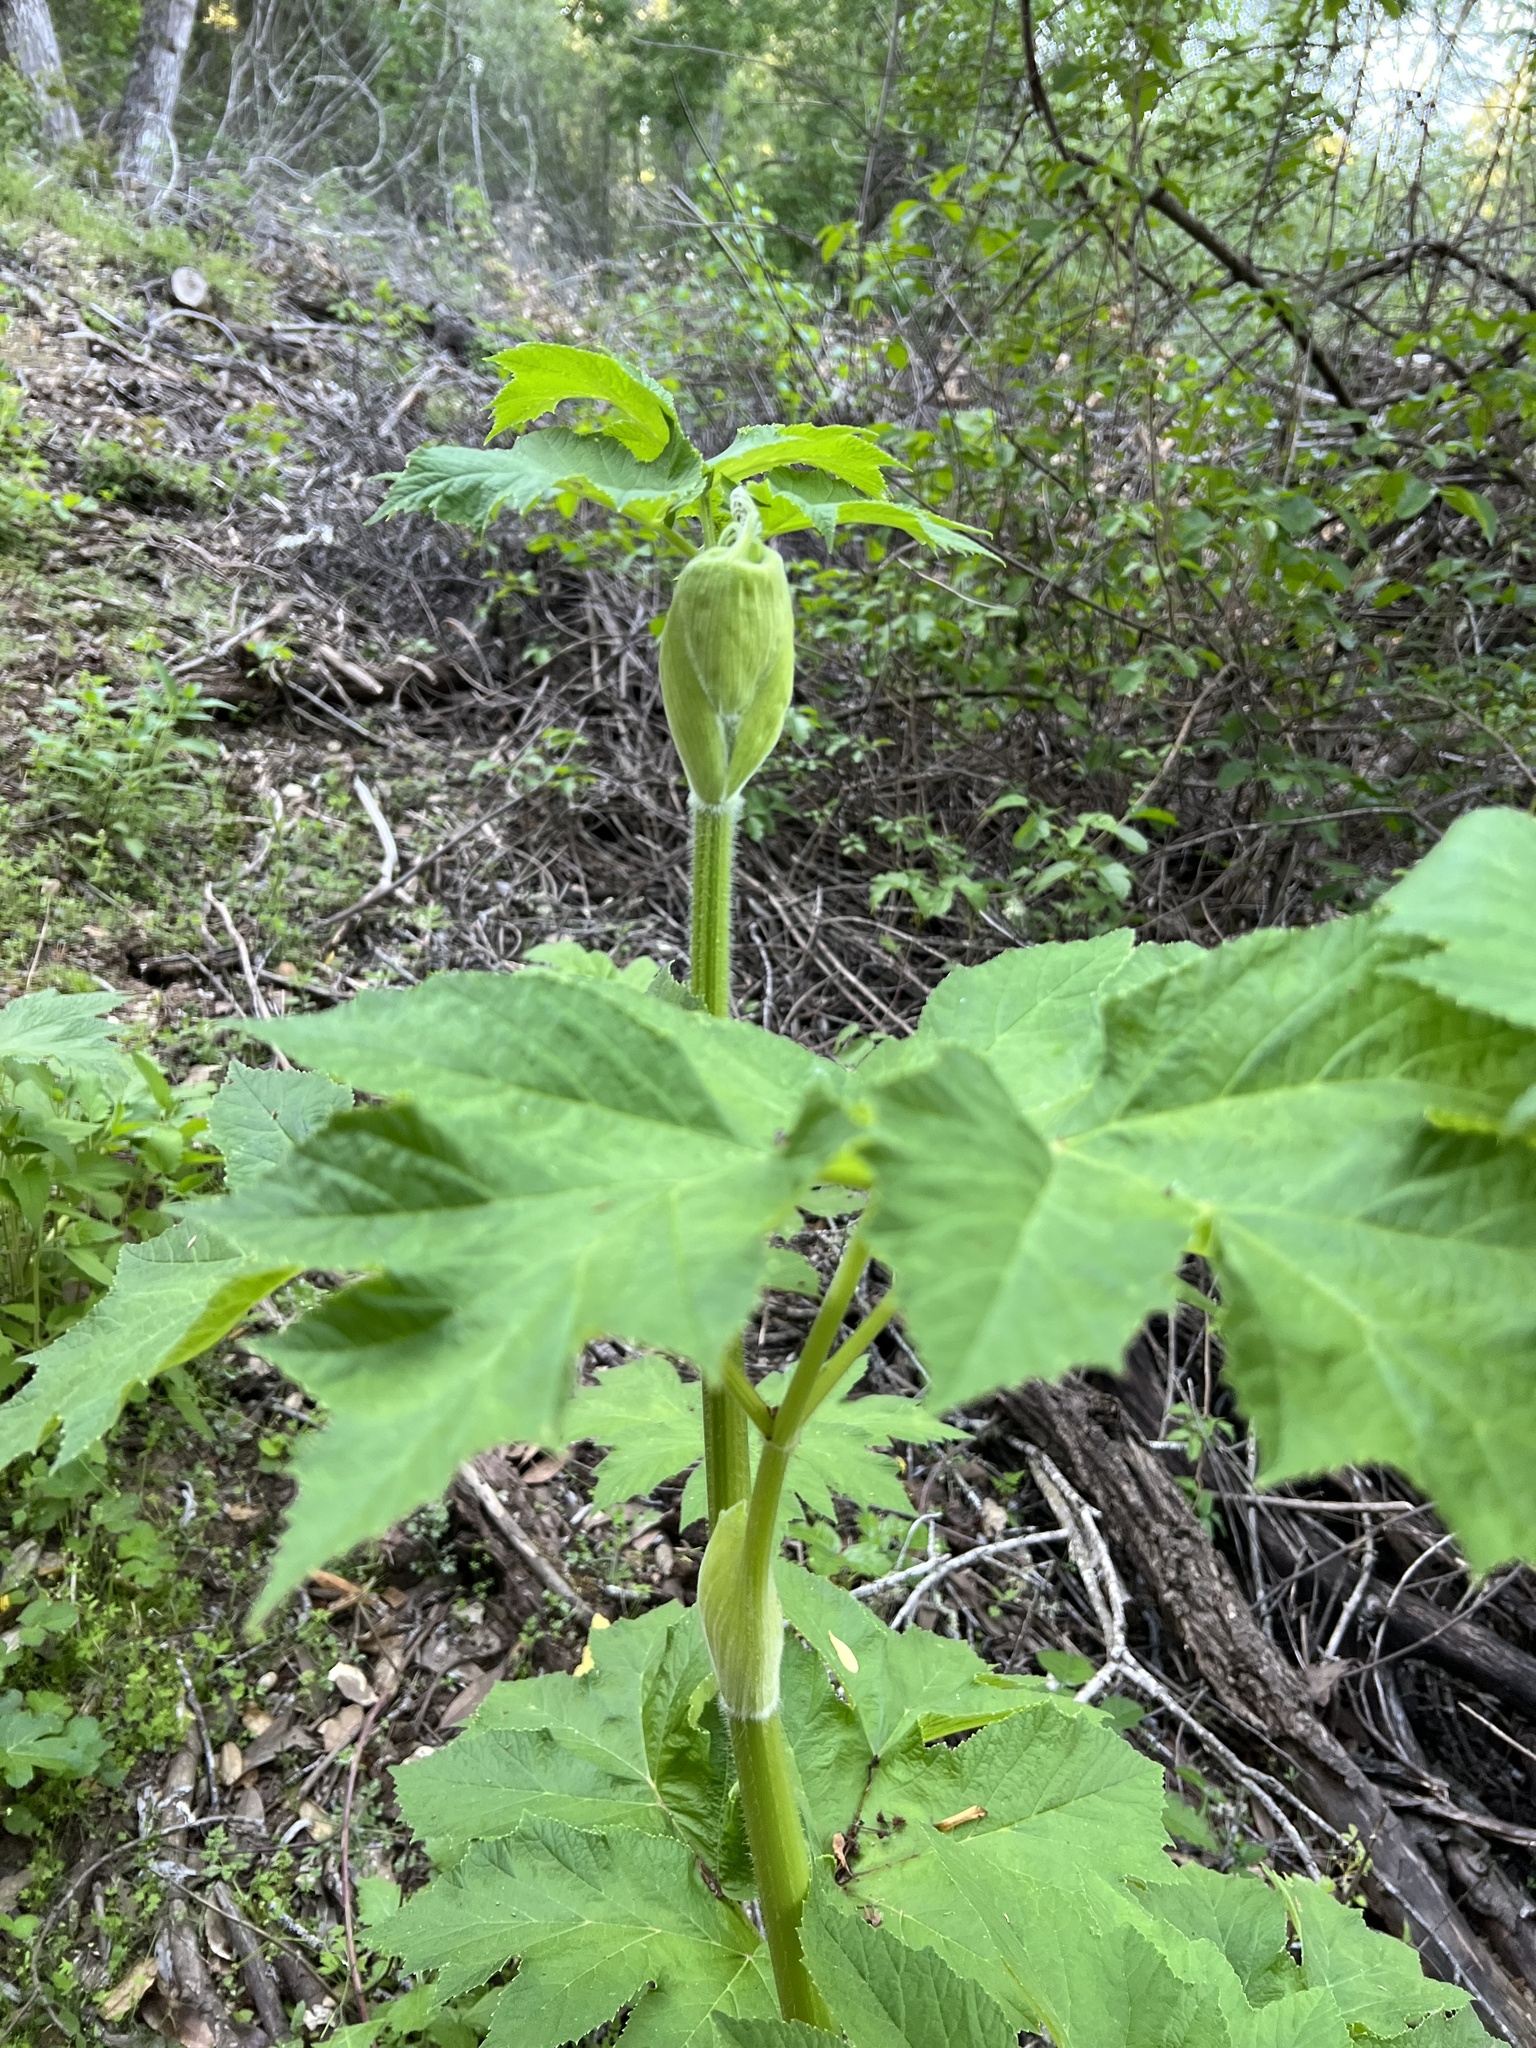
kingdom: Plantae
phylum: Tracheophyta
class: Magnoliopsida
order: Apiales
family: Apiaceae
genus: Heracleum
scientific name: Heracleum maximum
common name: American cow parsnip
